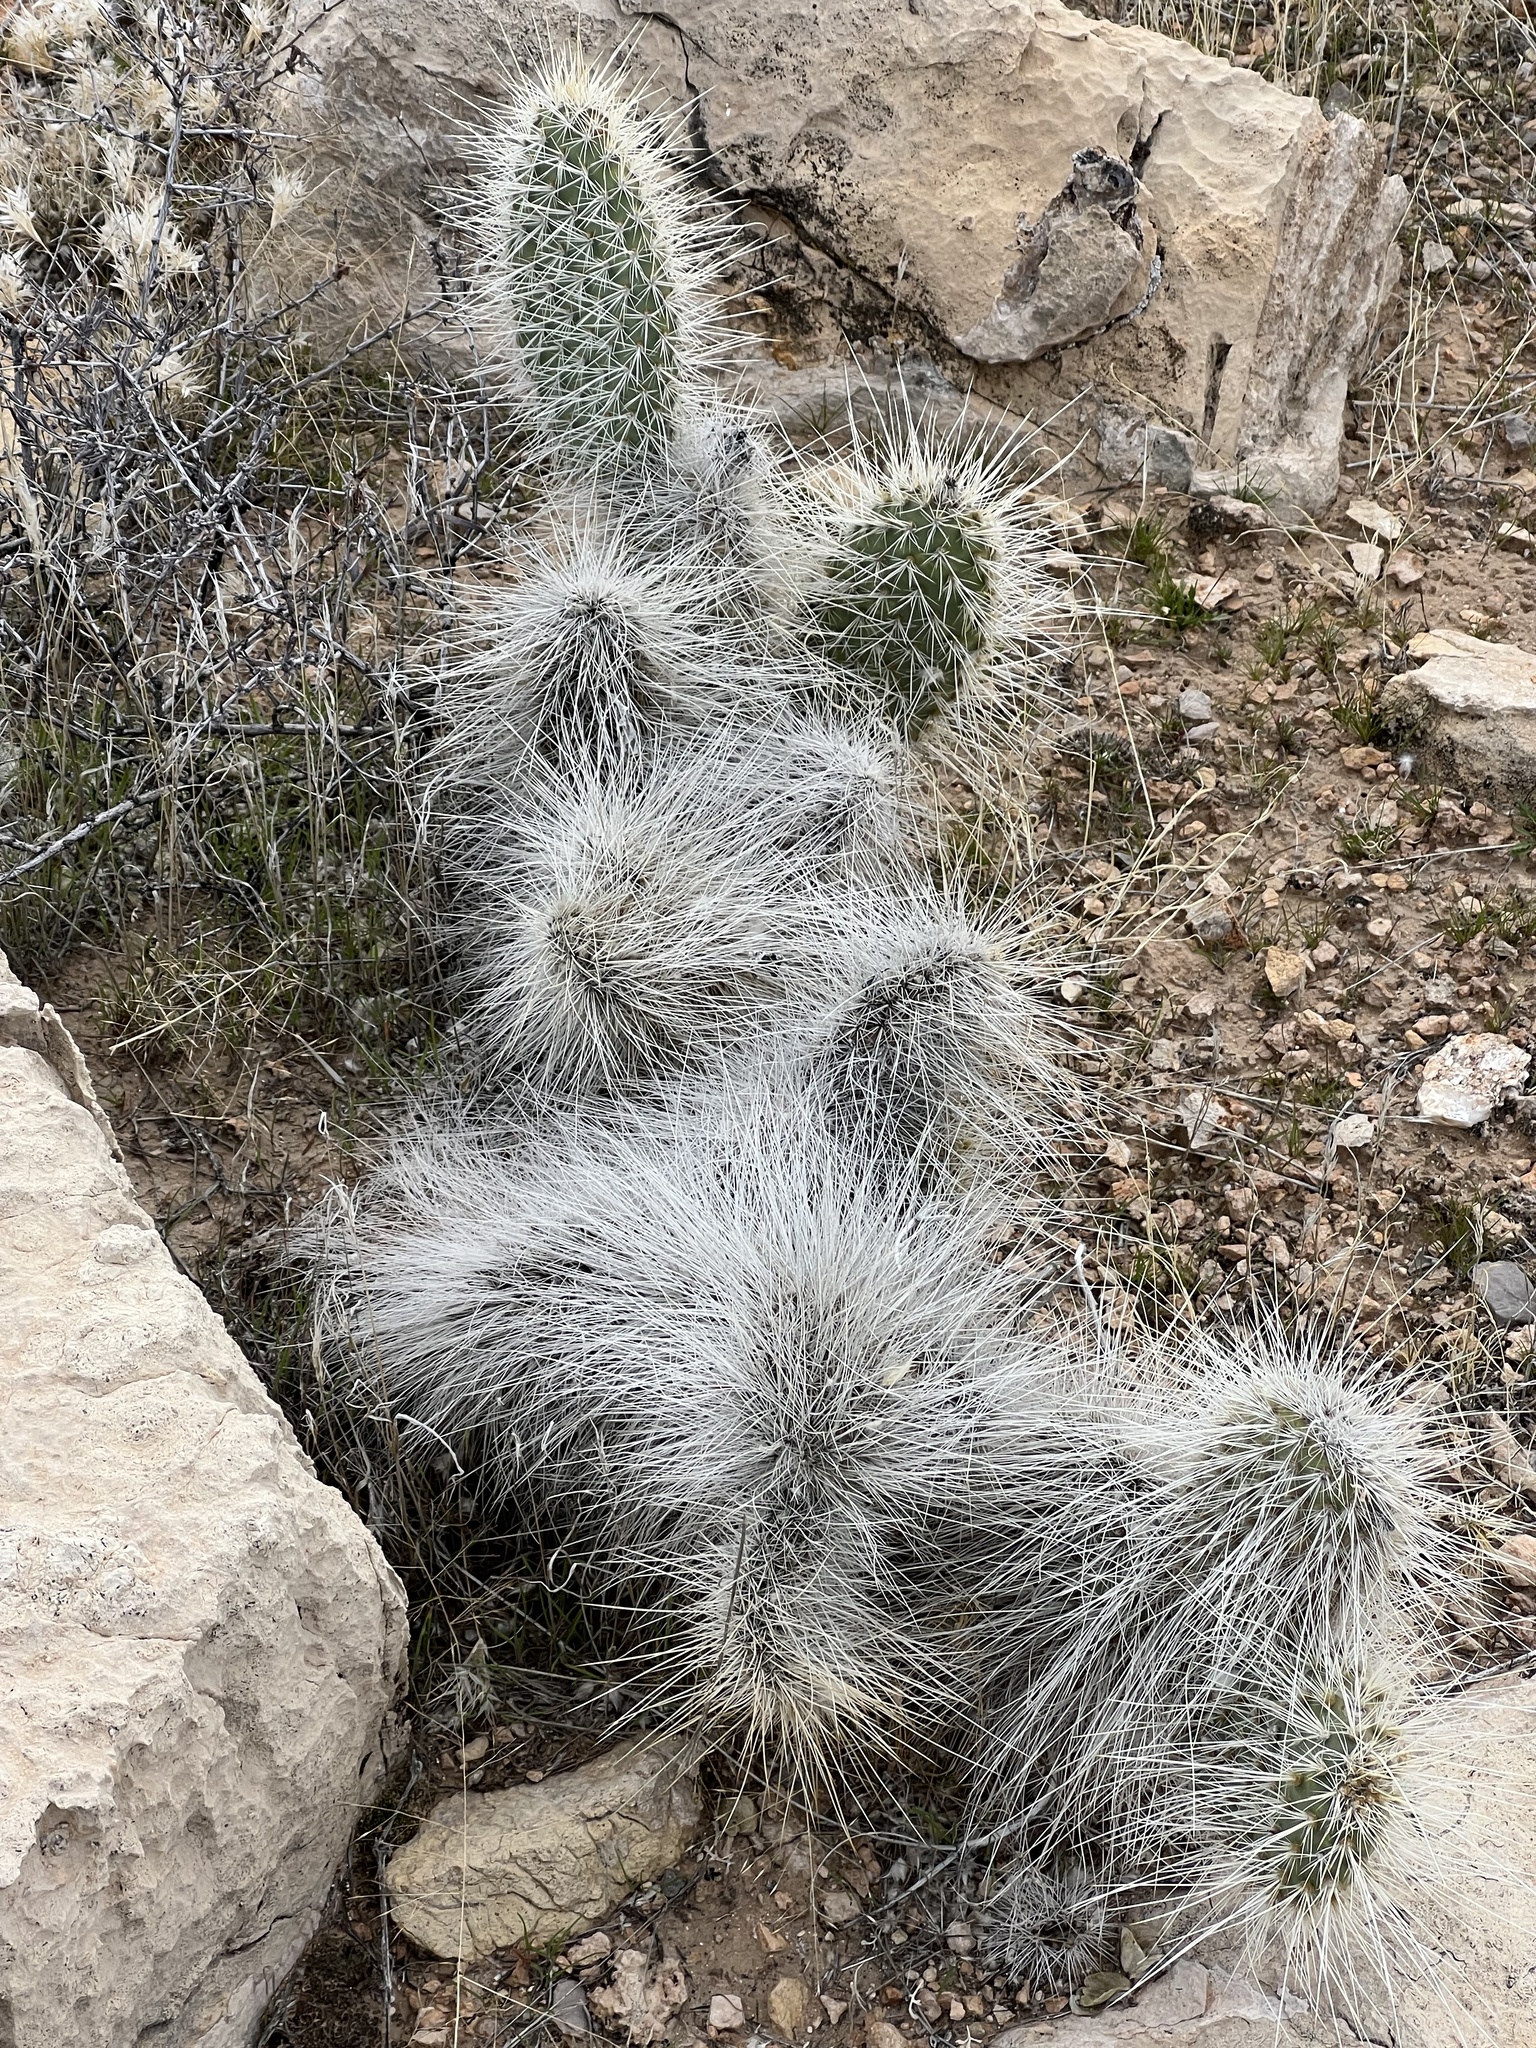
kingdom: Plantae
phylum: Tracheophyta
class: Magnoliopsida
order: Caryophyllales
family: Cactaceae
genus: Opuntia
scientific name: Opuntia polyacantha
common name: Plains prickly-pear
